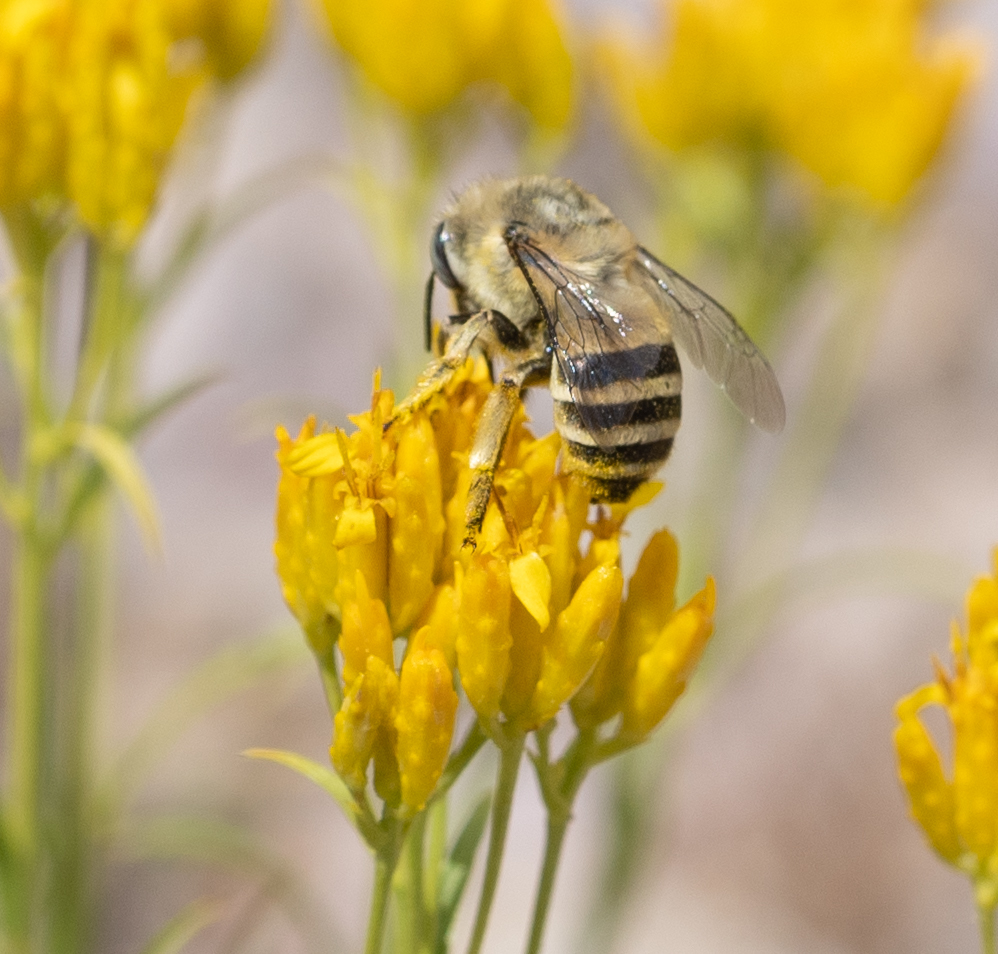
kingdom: Animalia
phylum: Arthropoda
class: Insecta
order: Hymenoptera
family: Apidae
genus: Anthophora
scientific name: Anthophora urbana
